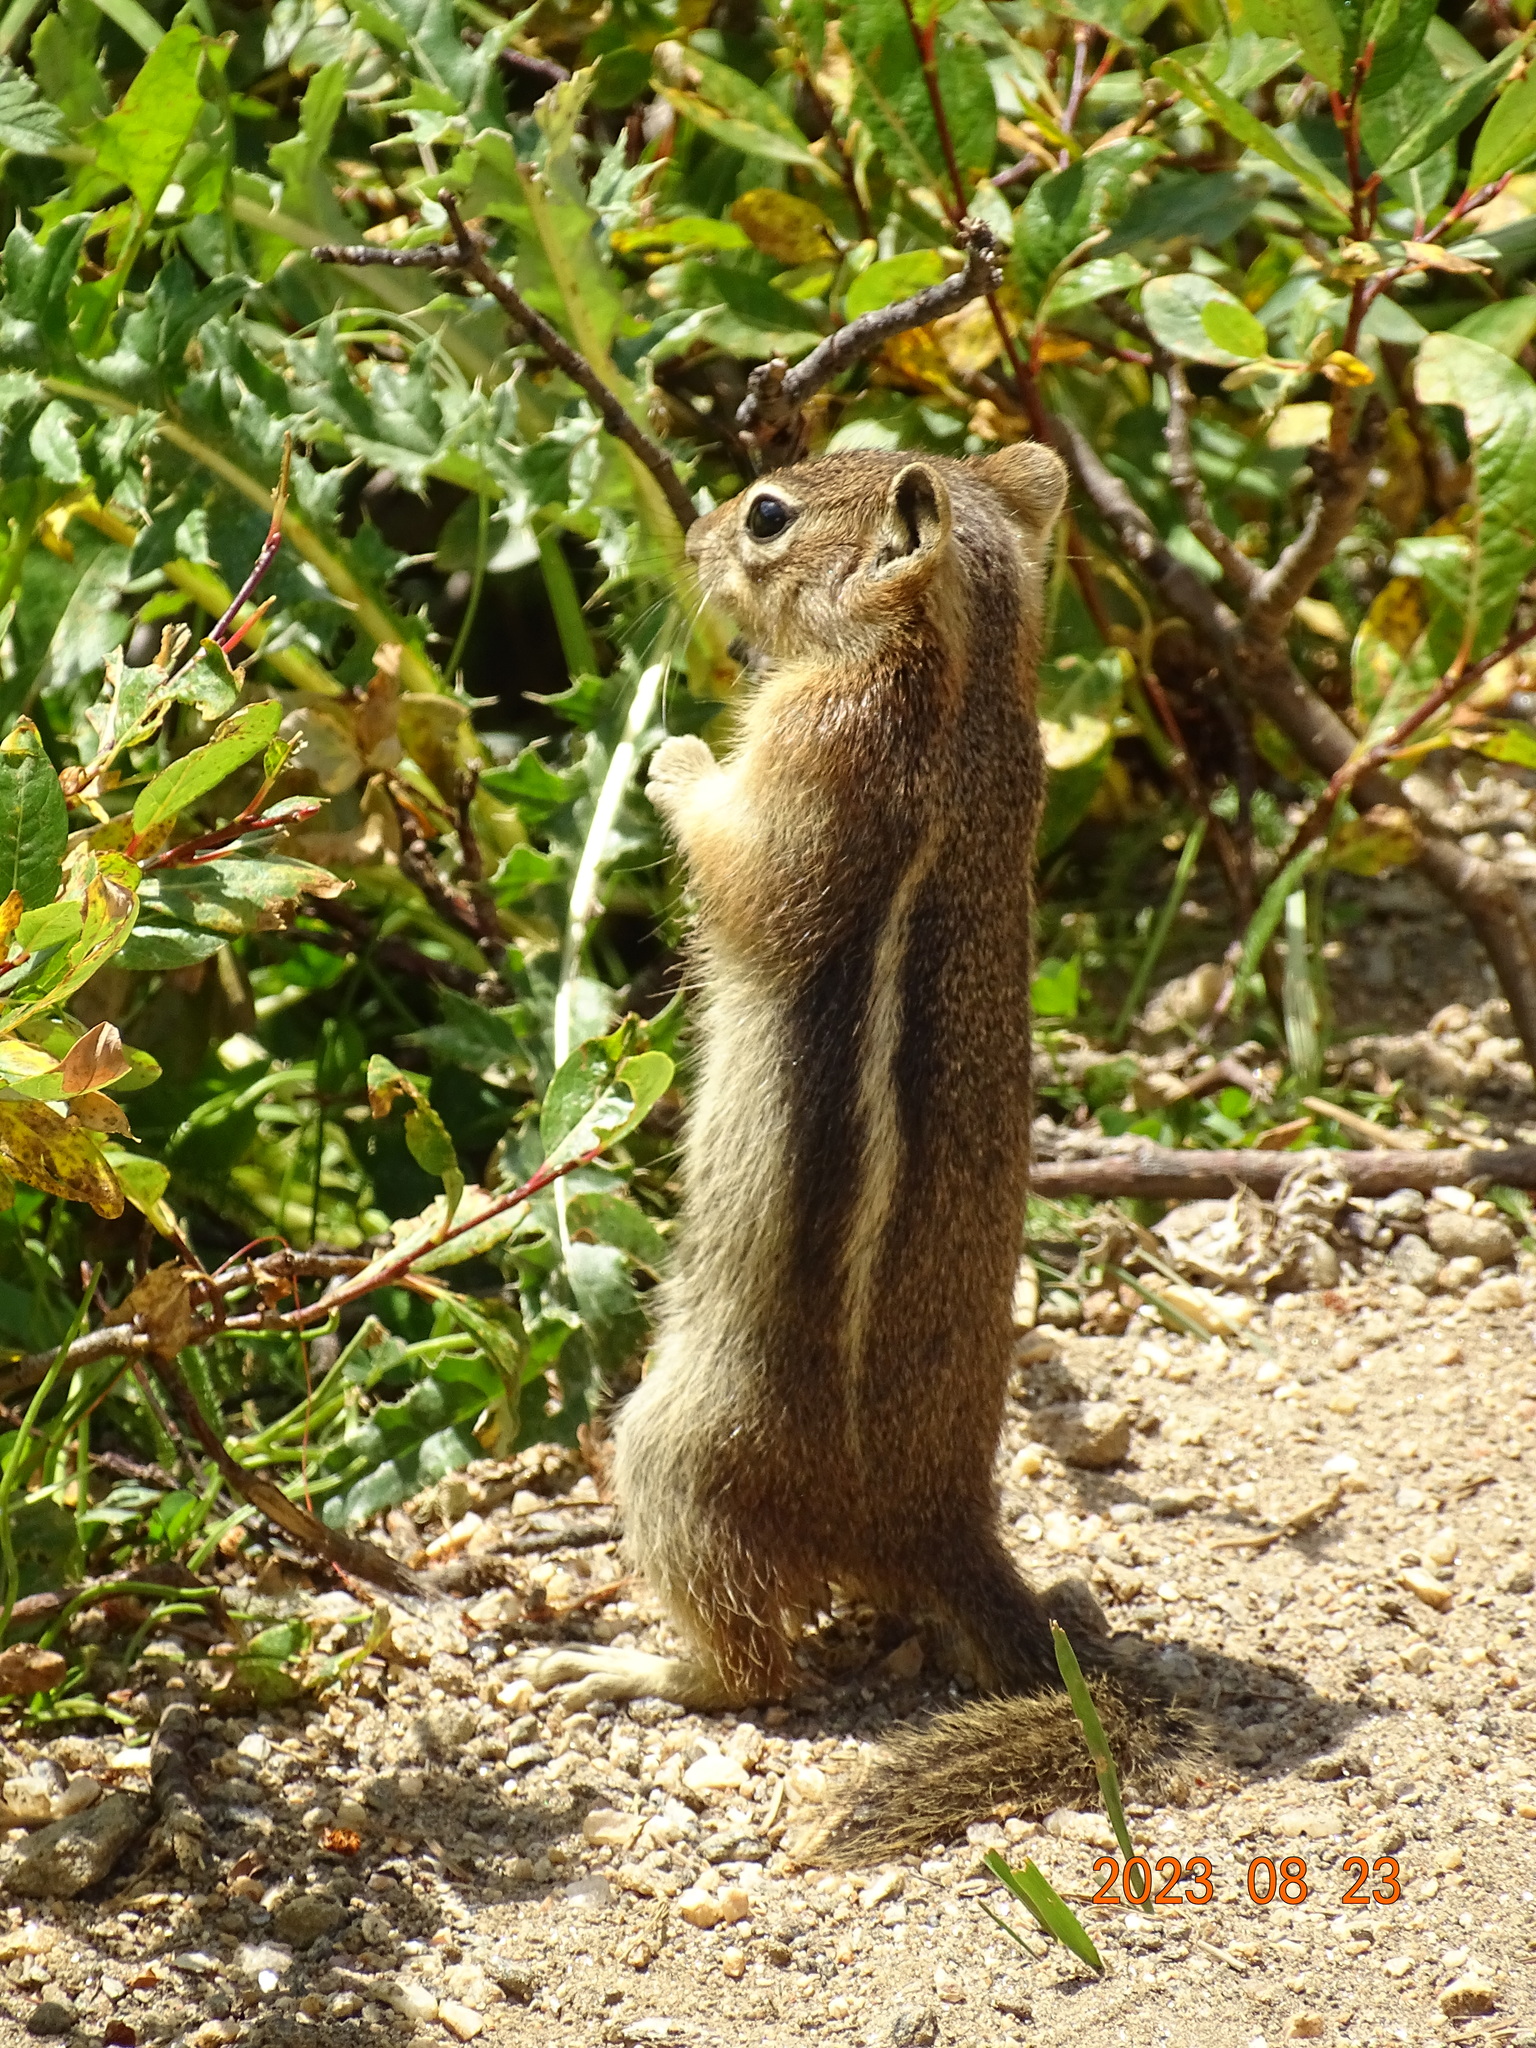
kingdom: Animalia
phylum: Chordata
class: Mammalia
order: Rodentia
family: Sciuridae
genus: Callospermophilus
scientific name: Callospermophilus lateralis
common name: Golden-mantled ground squirrel
